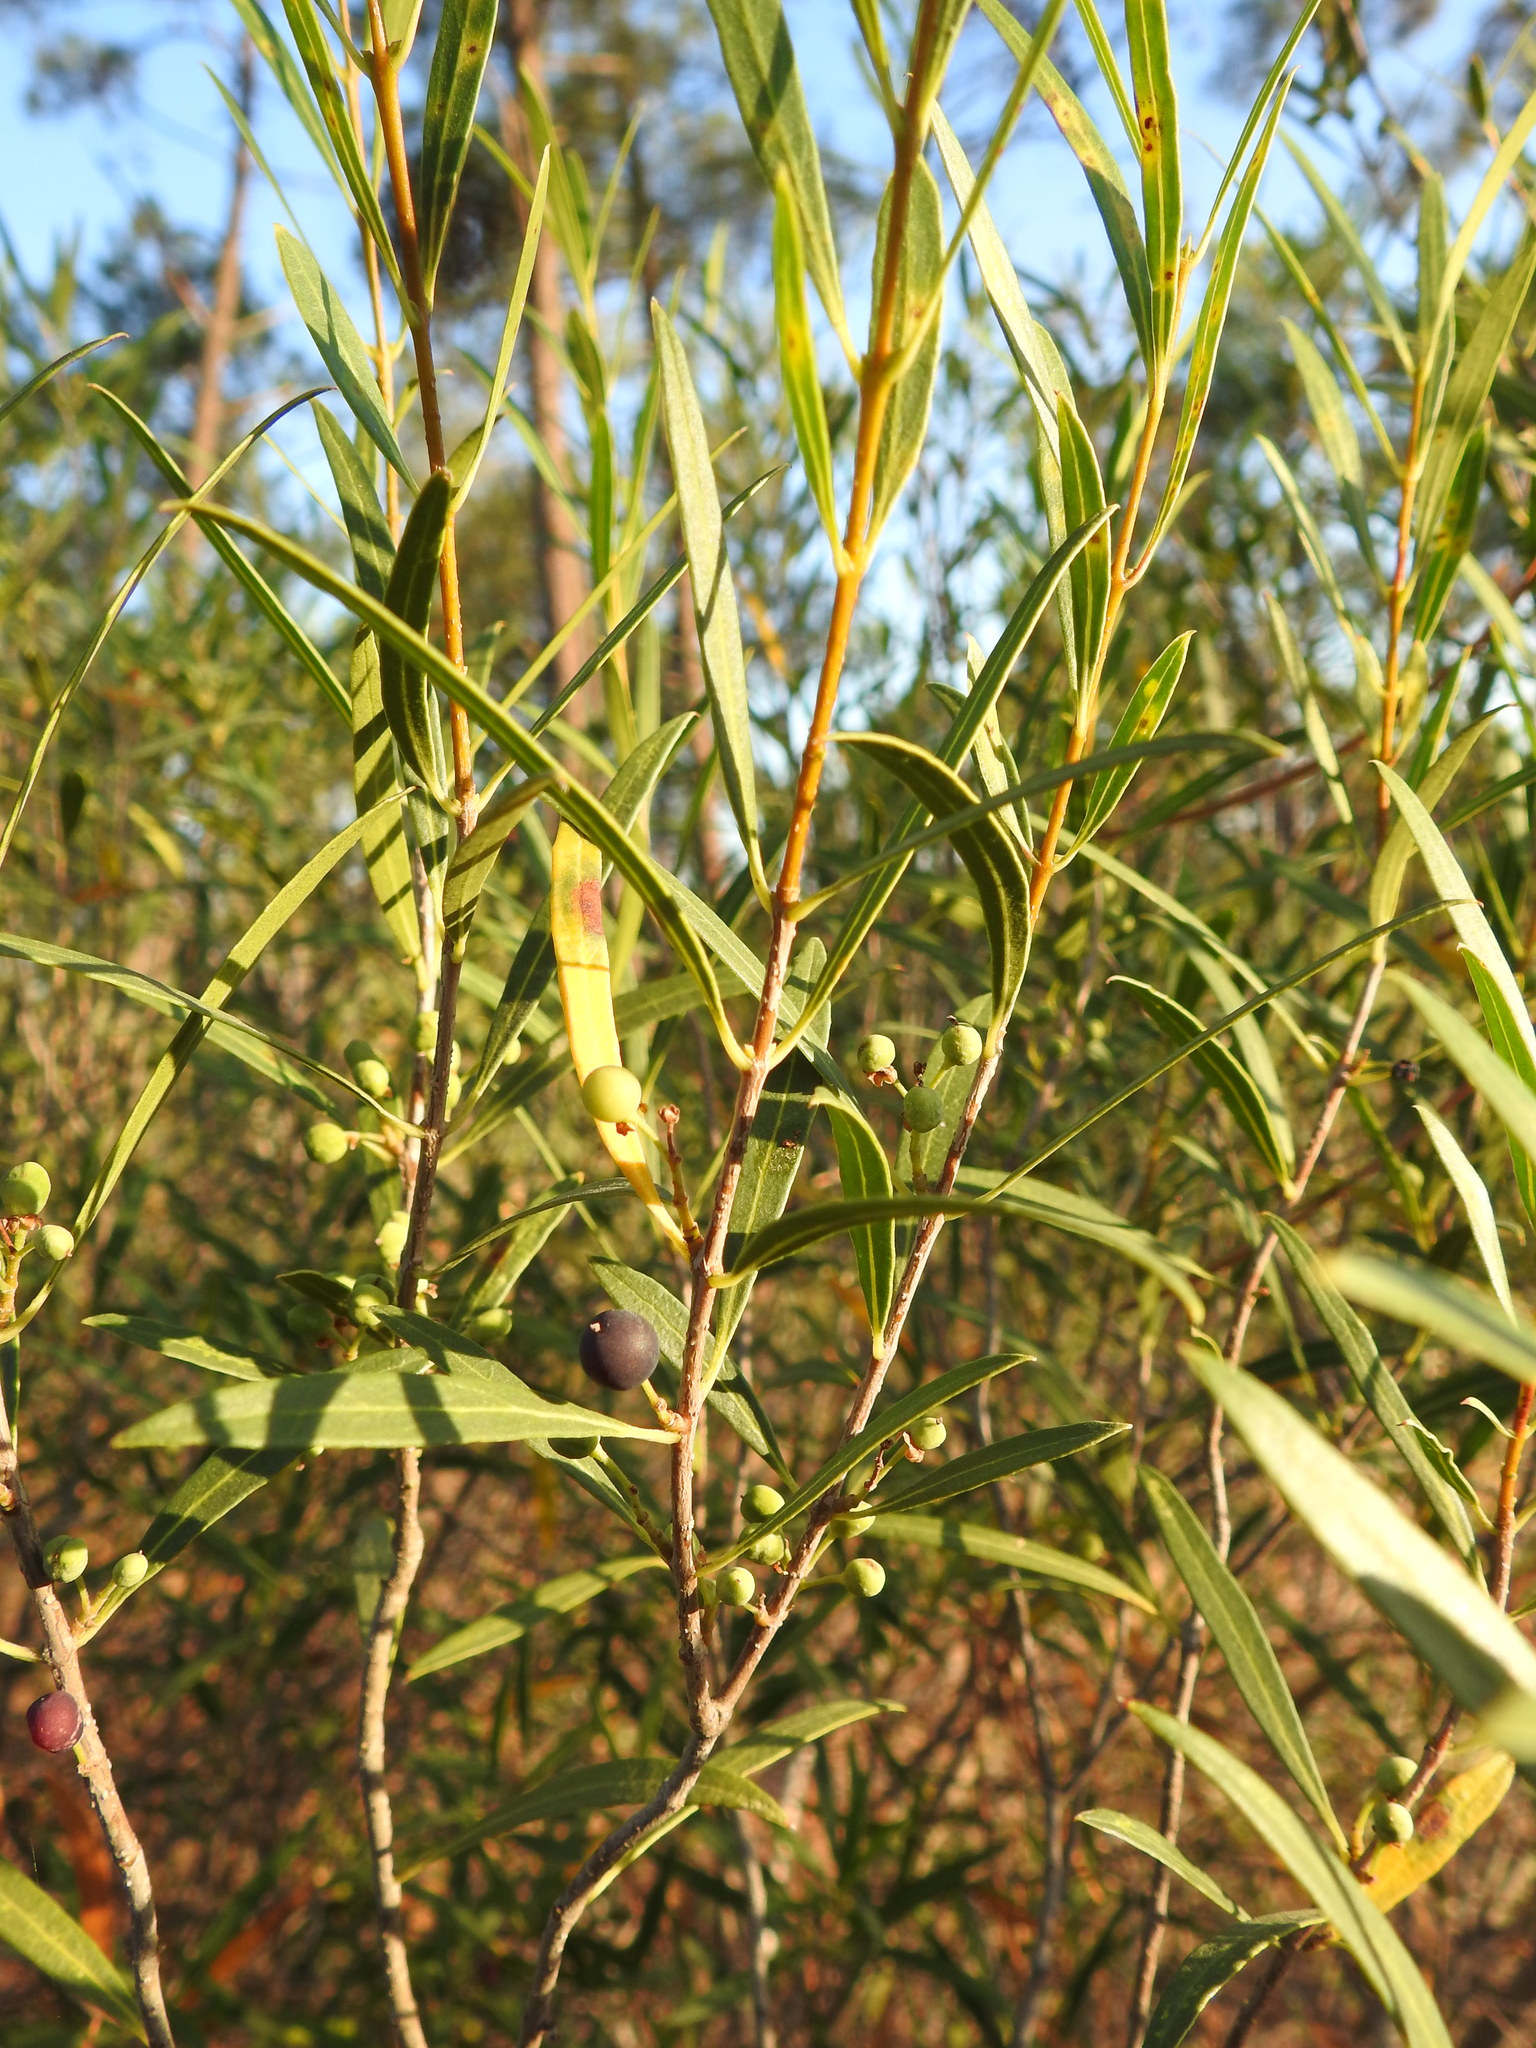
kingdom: Plantae
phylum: Tracheophyta
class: Magnoliopsida
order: Lamiales
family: Oleaceae
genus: Phillyrea
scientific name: Phillyrea angustifolia
